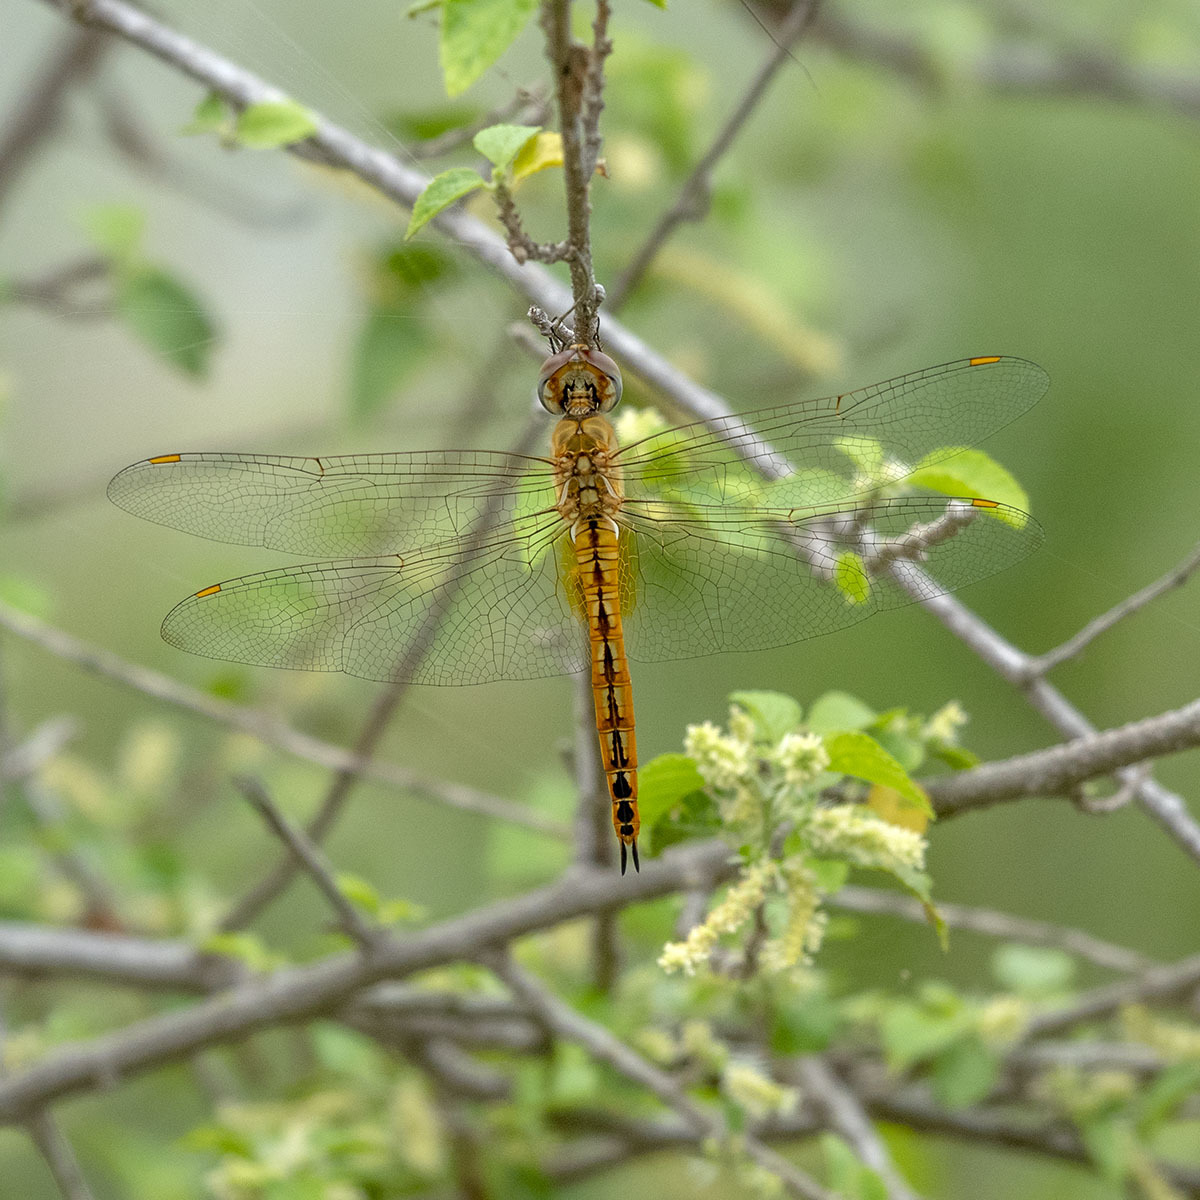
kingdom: Animalia
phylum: Arthropoda
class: Insecta
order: Odonata
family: Libellulidae
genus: Pantala
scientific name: Pantala flavescens
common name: Wandering glider
